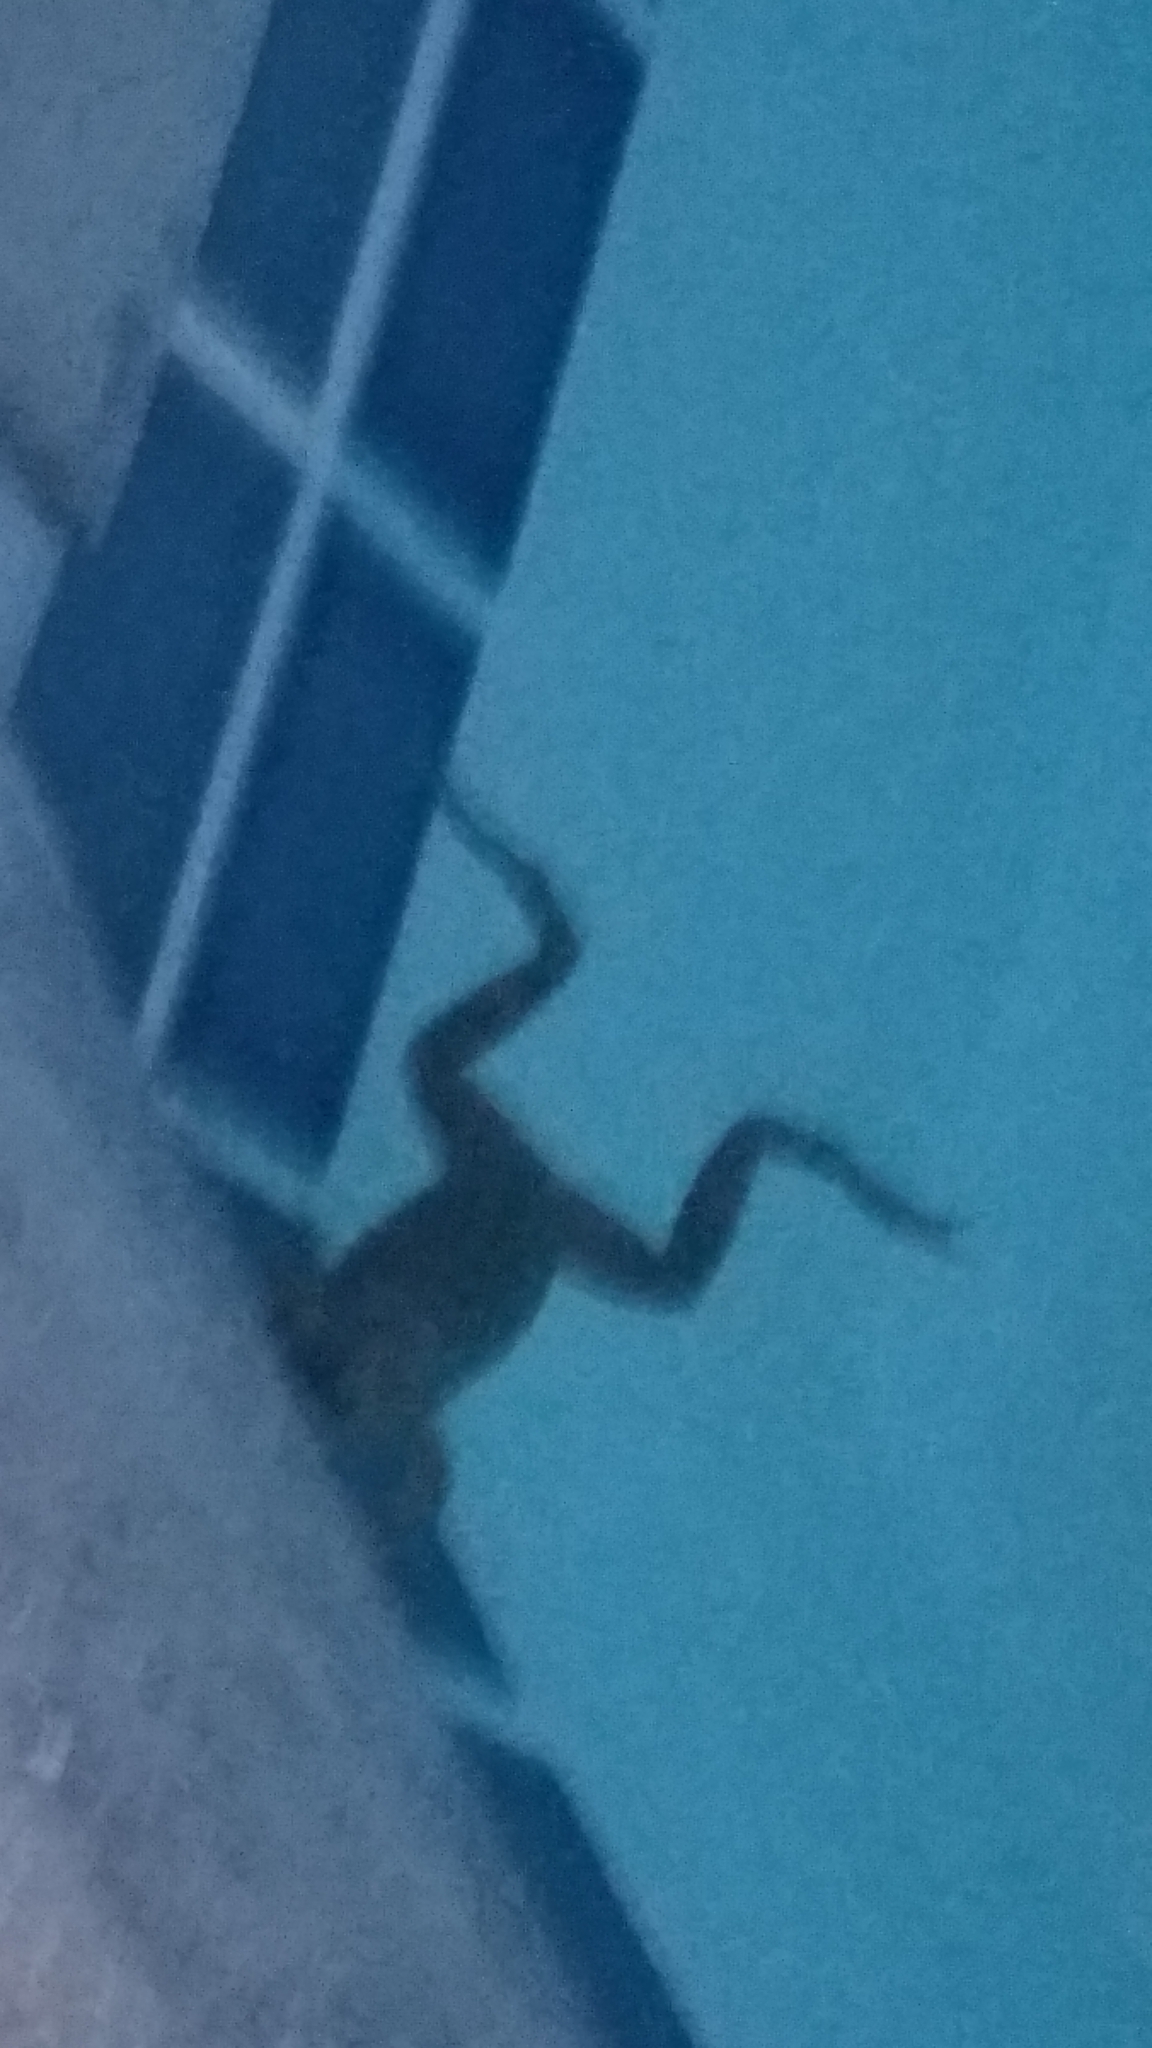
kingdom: Animalia
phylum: Chordata
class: Amphibia
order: Anura
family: Ranidae
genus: Lithobates
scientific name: Lithobates catesbeianus
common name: American bullfrog
